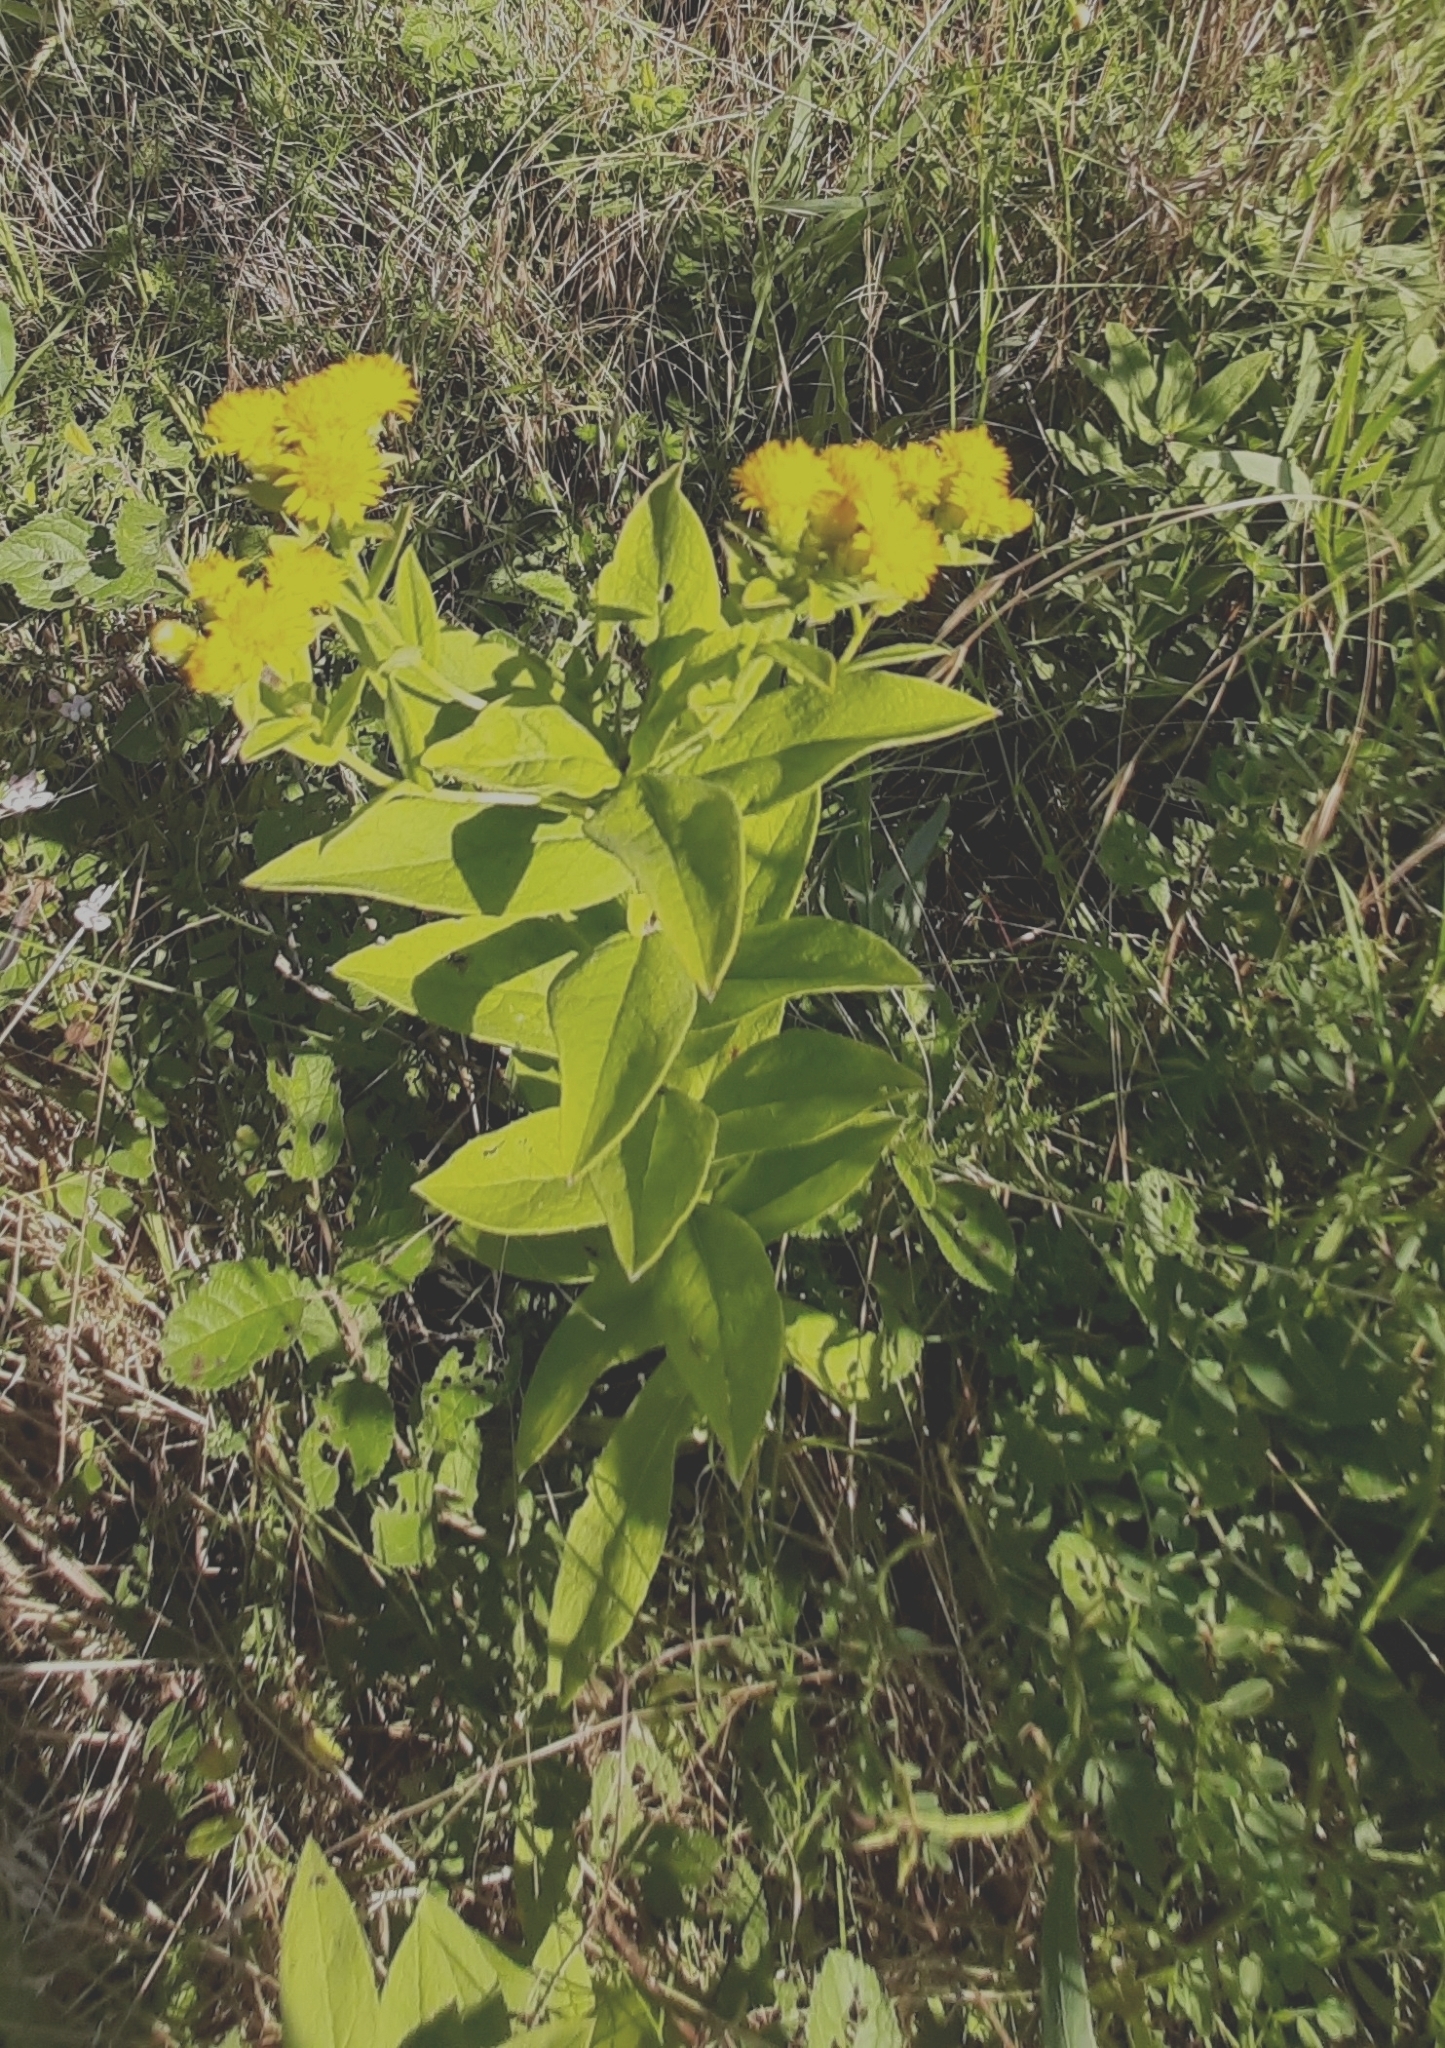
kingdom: Plantae
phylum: Tracheophyta
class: Magnoliopsida
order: Asterales
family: Asteraceae
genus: Pentanema
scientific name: Pentanema squarrosum
